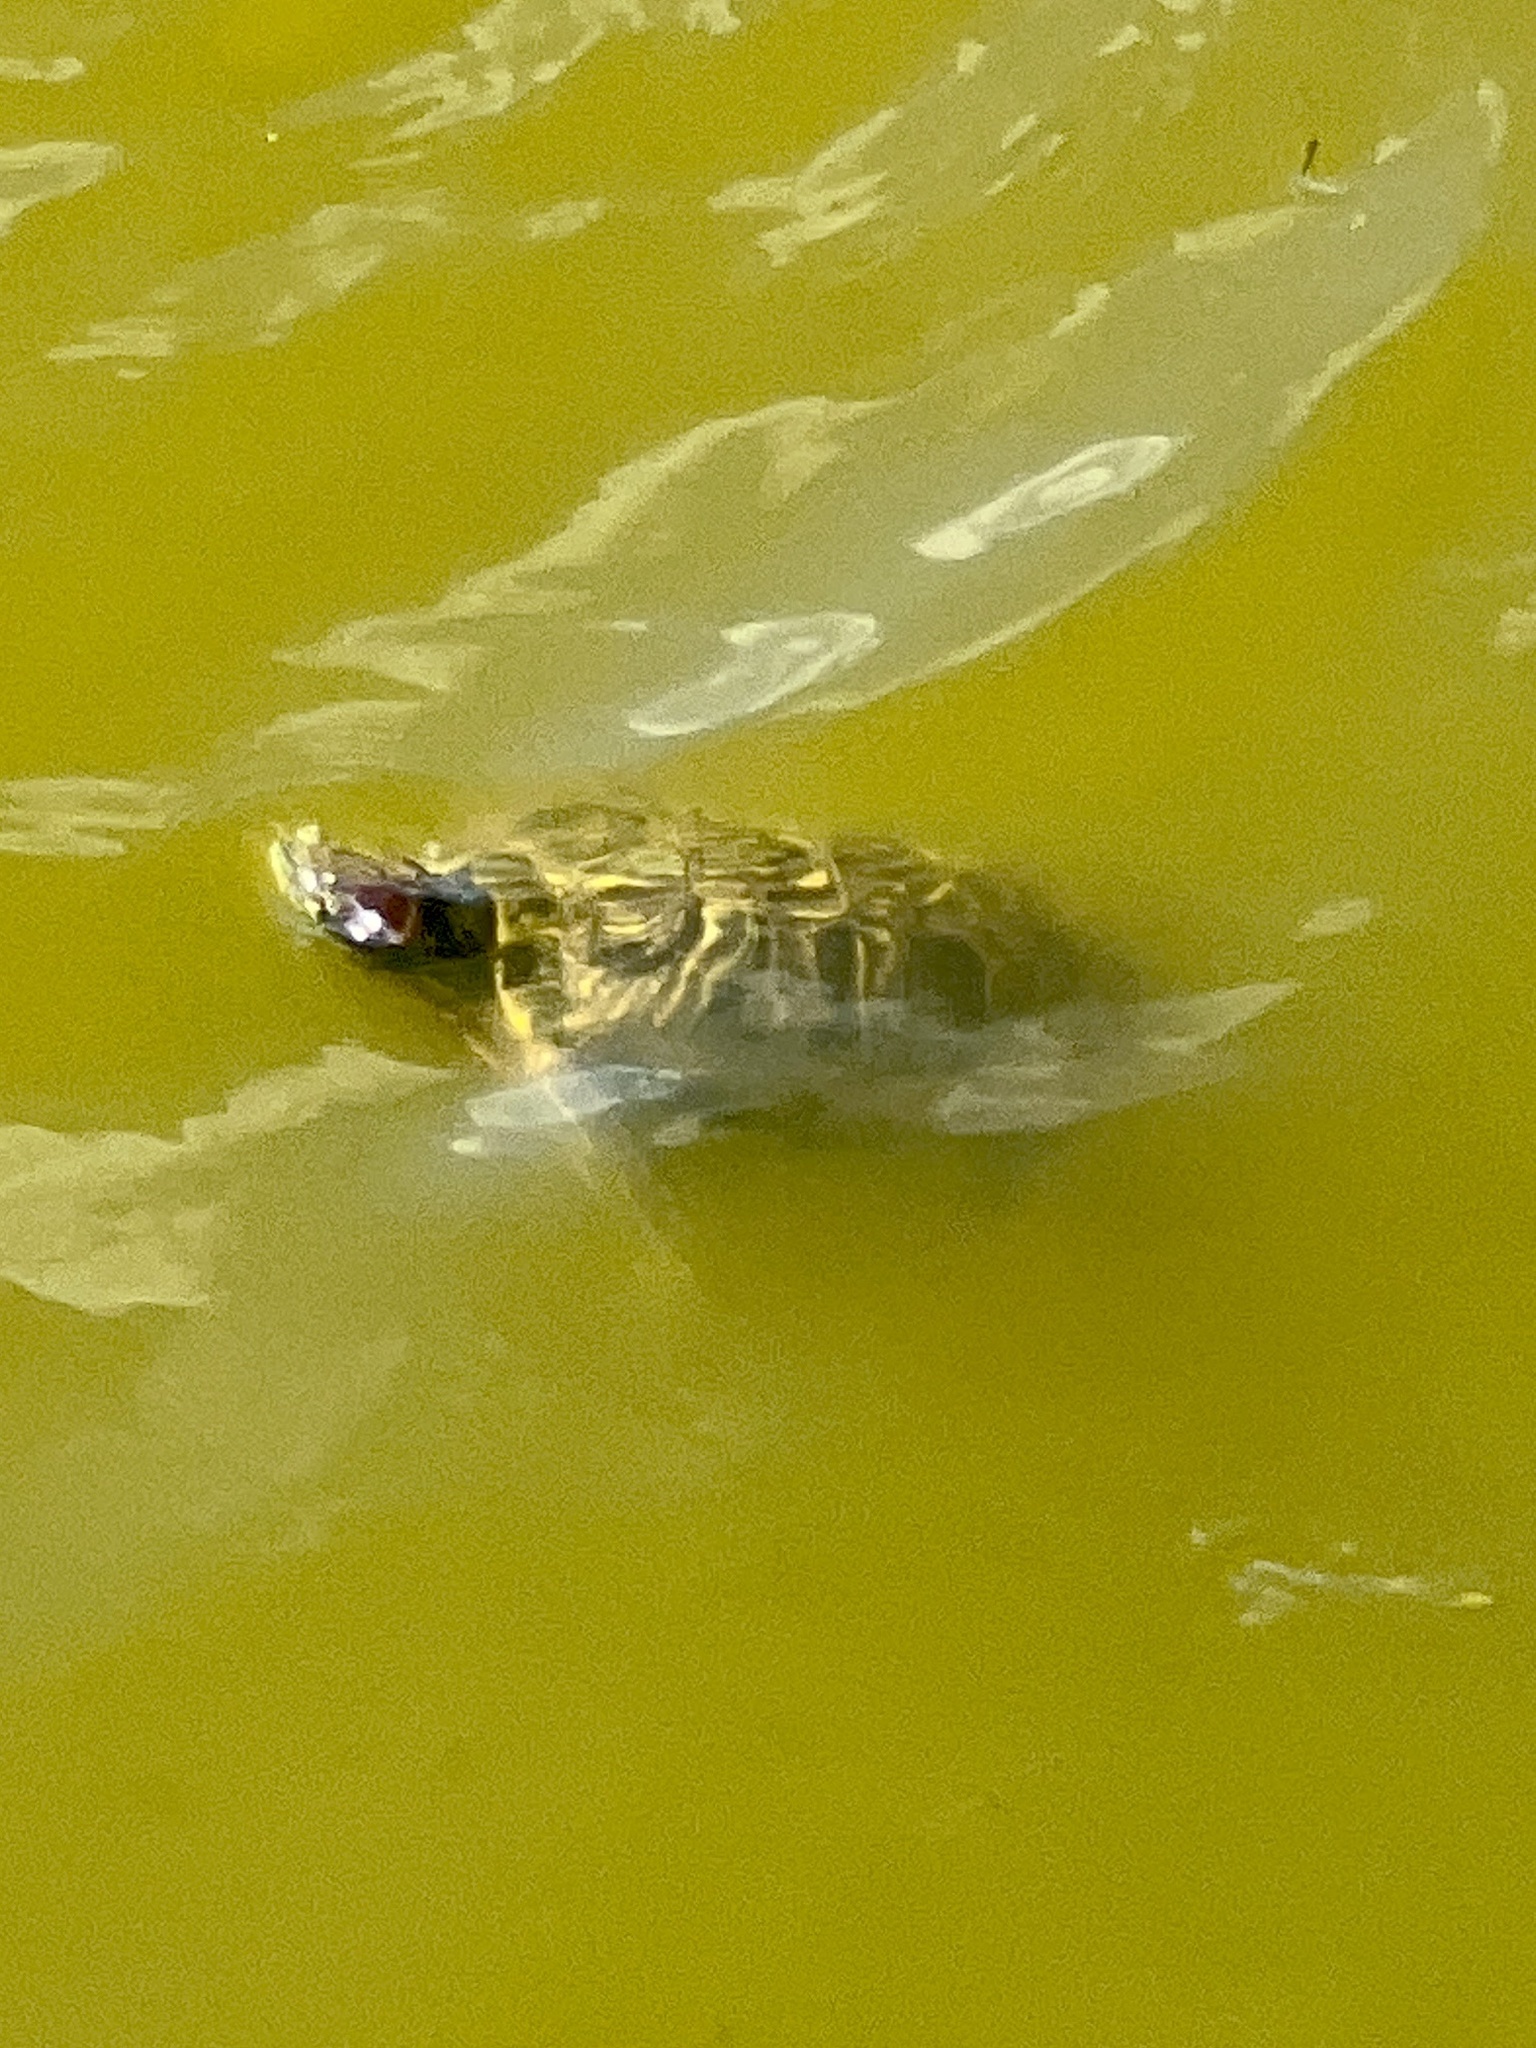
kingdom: Animalia
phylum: Chordata
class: Testudines
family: Emydidae
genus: Trachemys
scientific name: Trachemys scripta
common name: Slider
